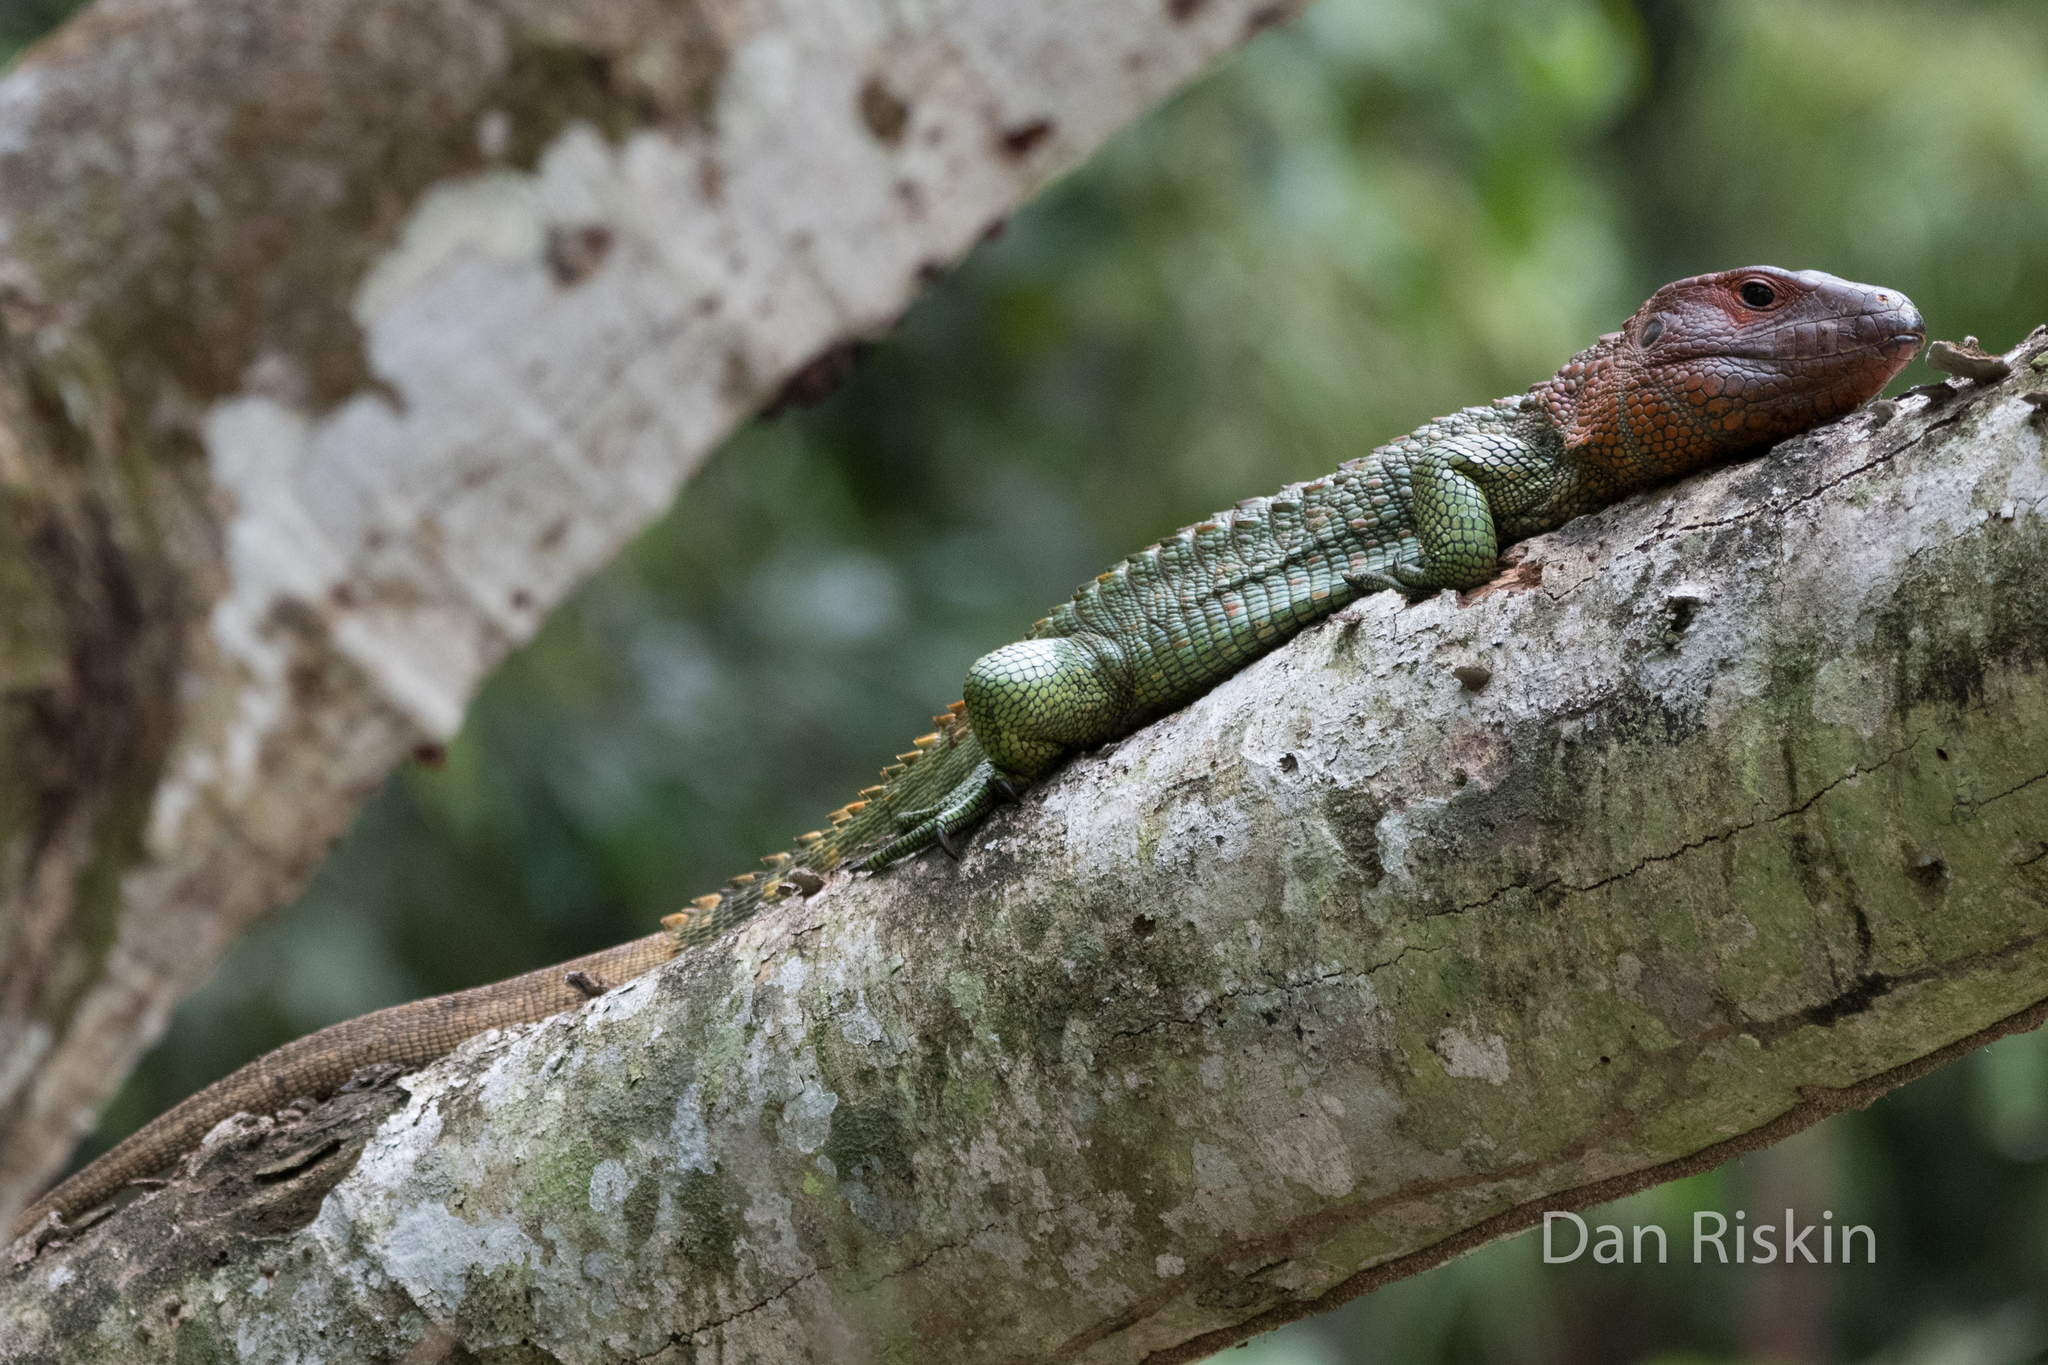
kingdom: Animalia
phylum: Chordata
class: Squamata
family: Teiidae
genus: Dracaena
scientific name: Dracaena guianensis
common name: Guyana caiman lizard
